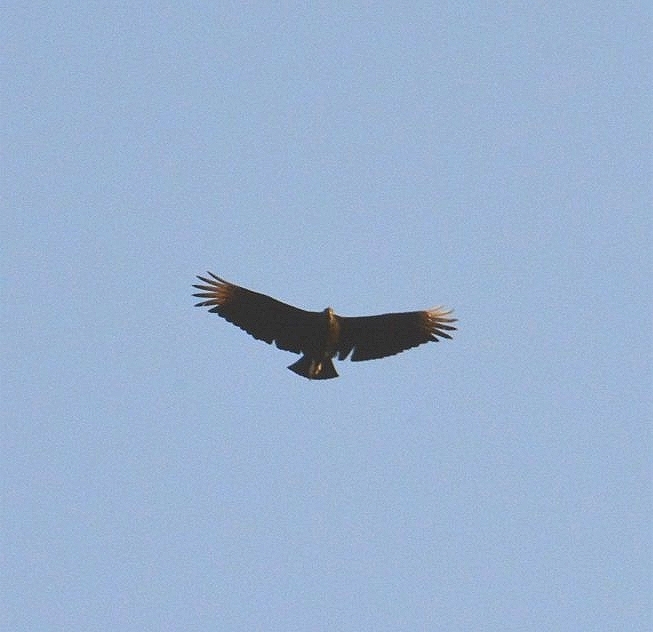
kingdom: Animalia
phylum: Chordata
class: Aves
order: Accipitriformes
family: Cathartidae
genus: Coragyps
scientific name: Coragyps atratus
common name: Black vulture
